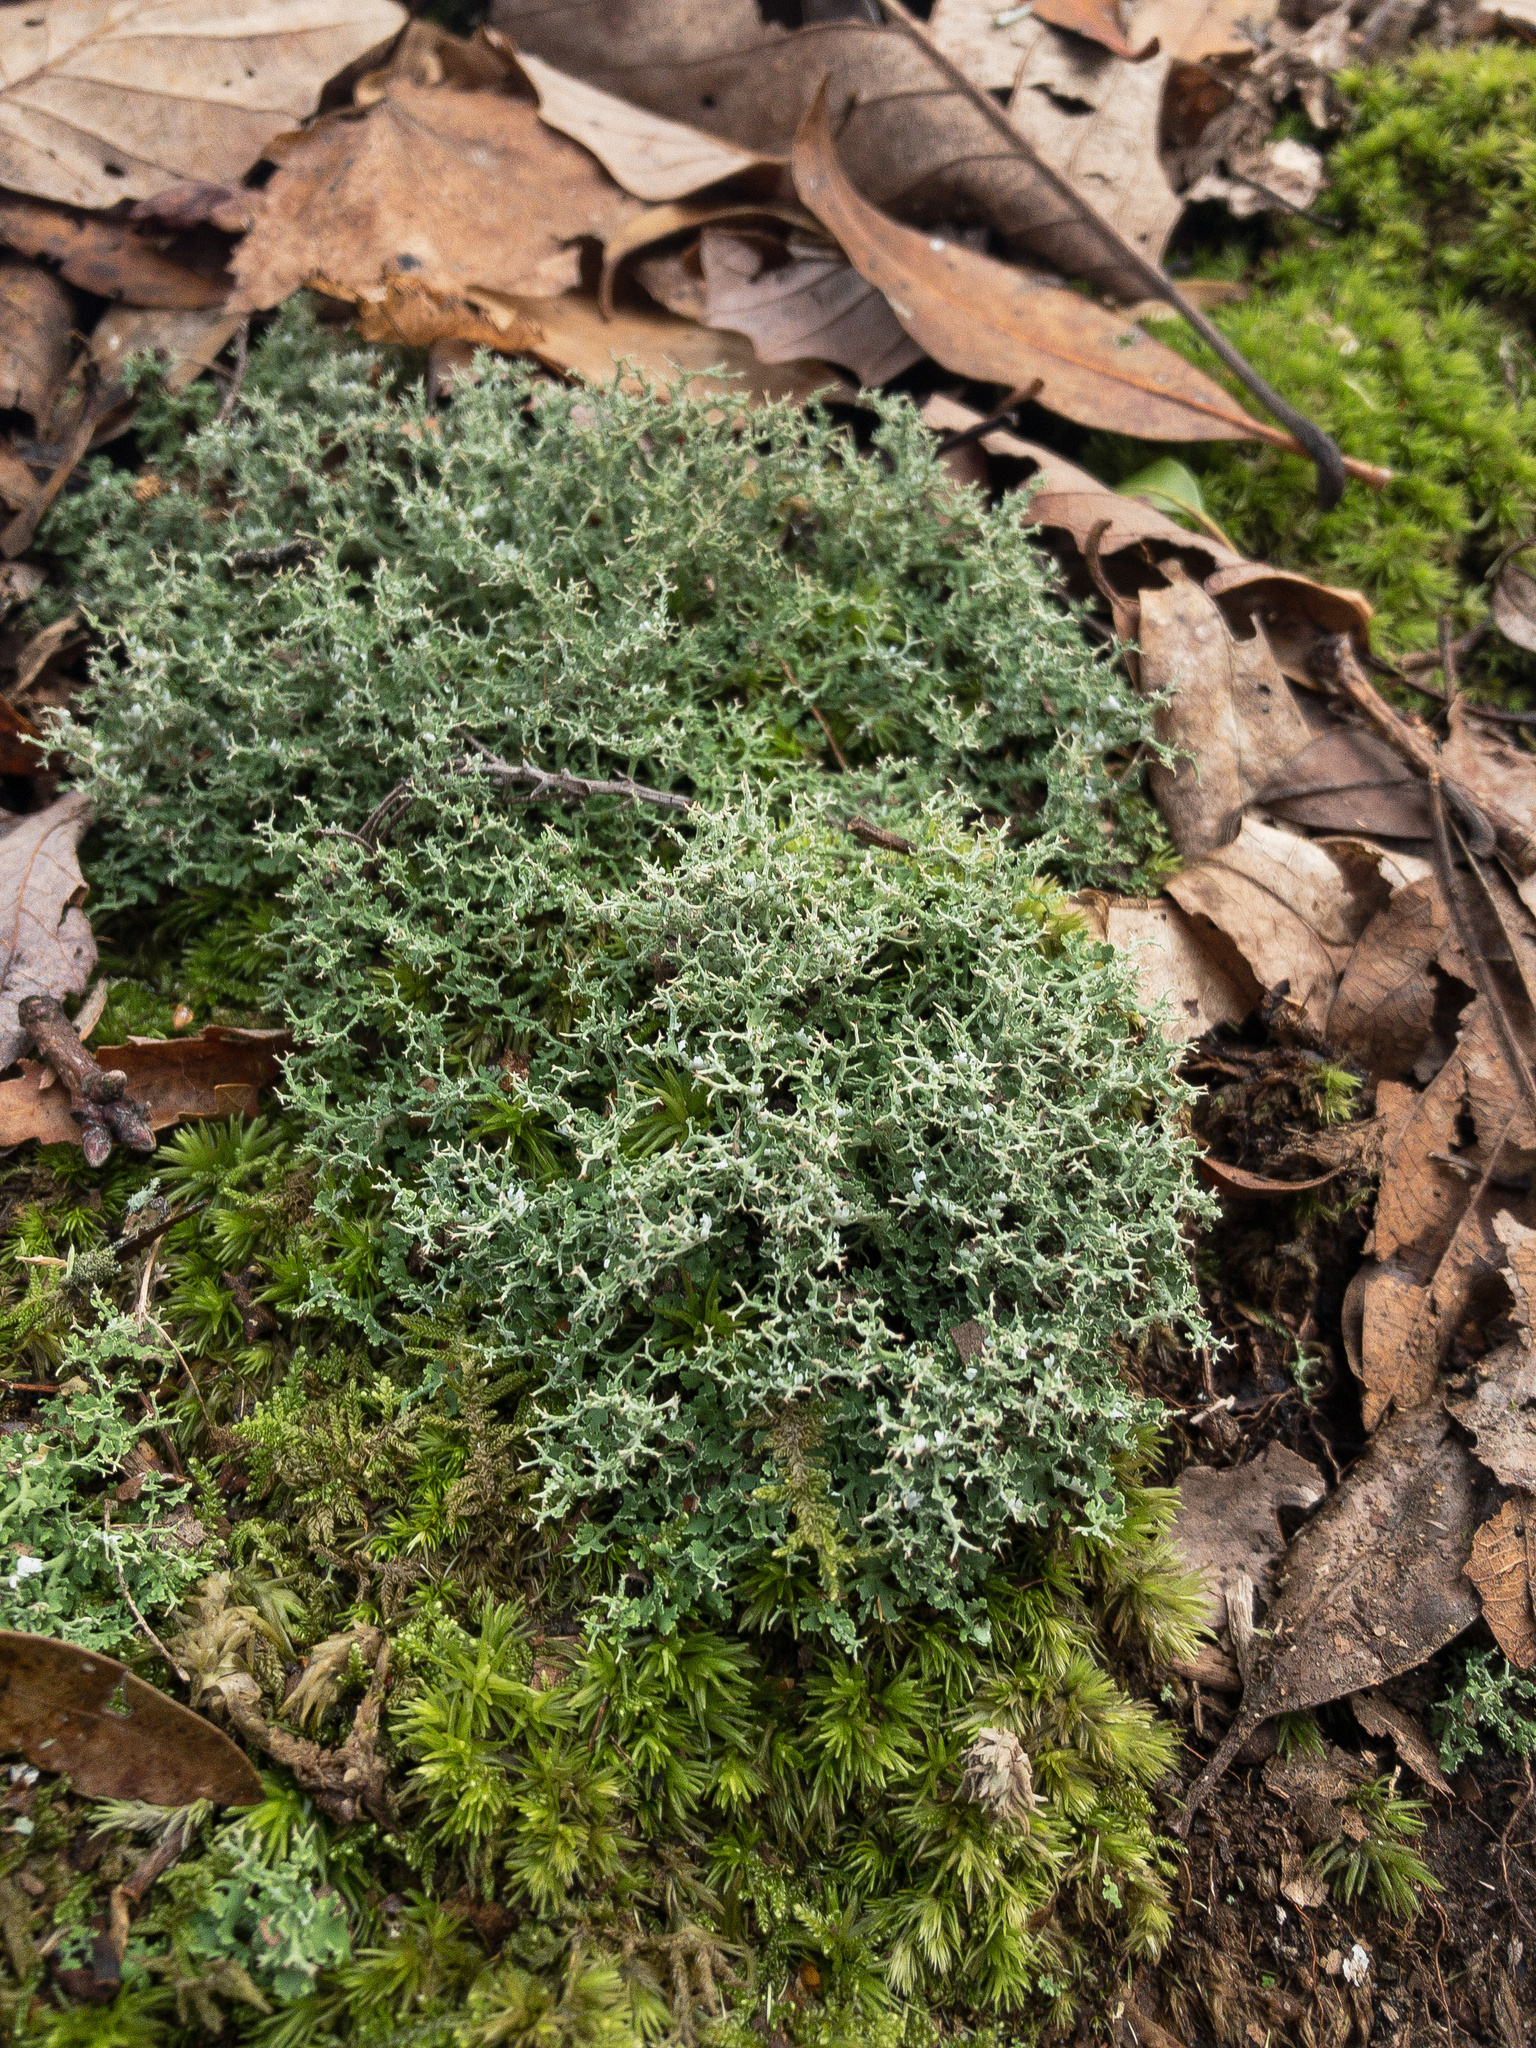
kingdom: Fungi
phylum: Ascomycota
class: Lecanoromycetes
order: Lecanorales
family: Cladoniaceae
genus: Cladonia
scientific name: Cladonia furcata
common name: Many-forked cladonia
